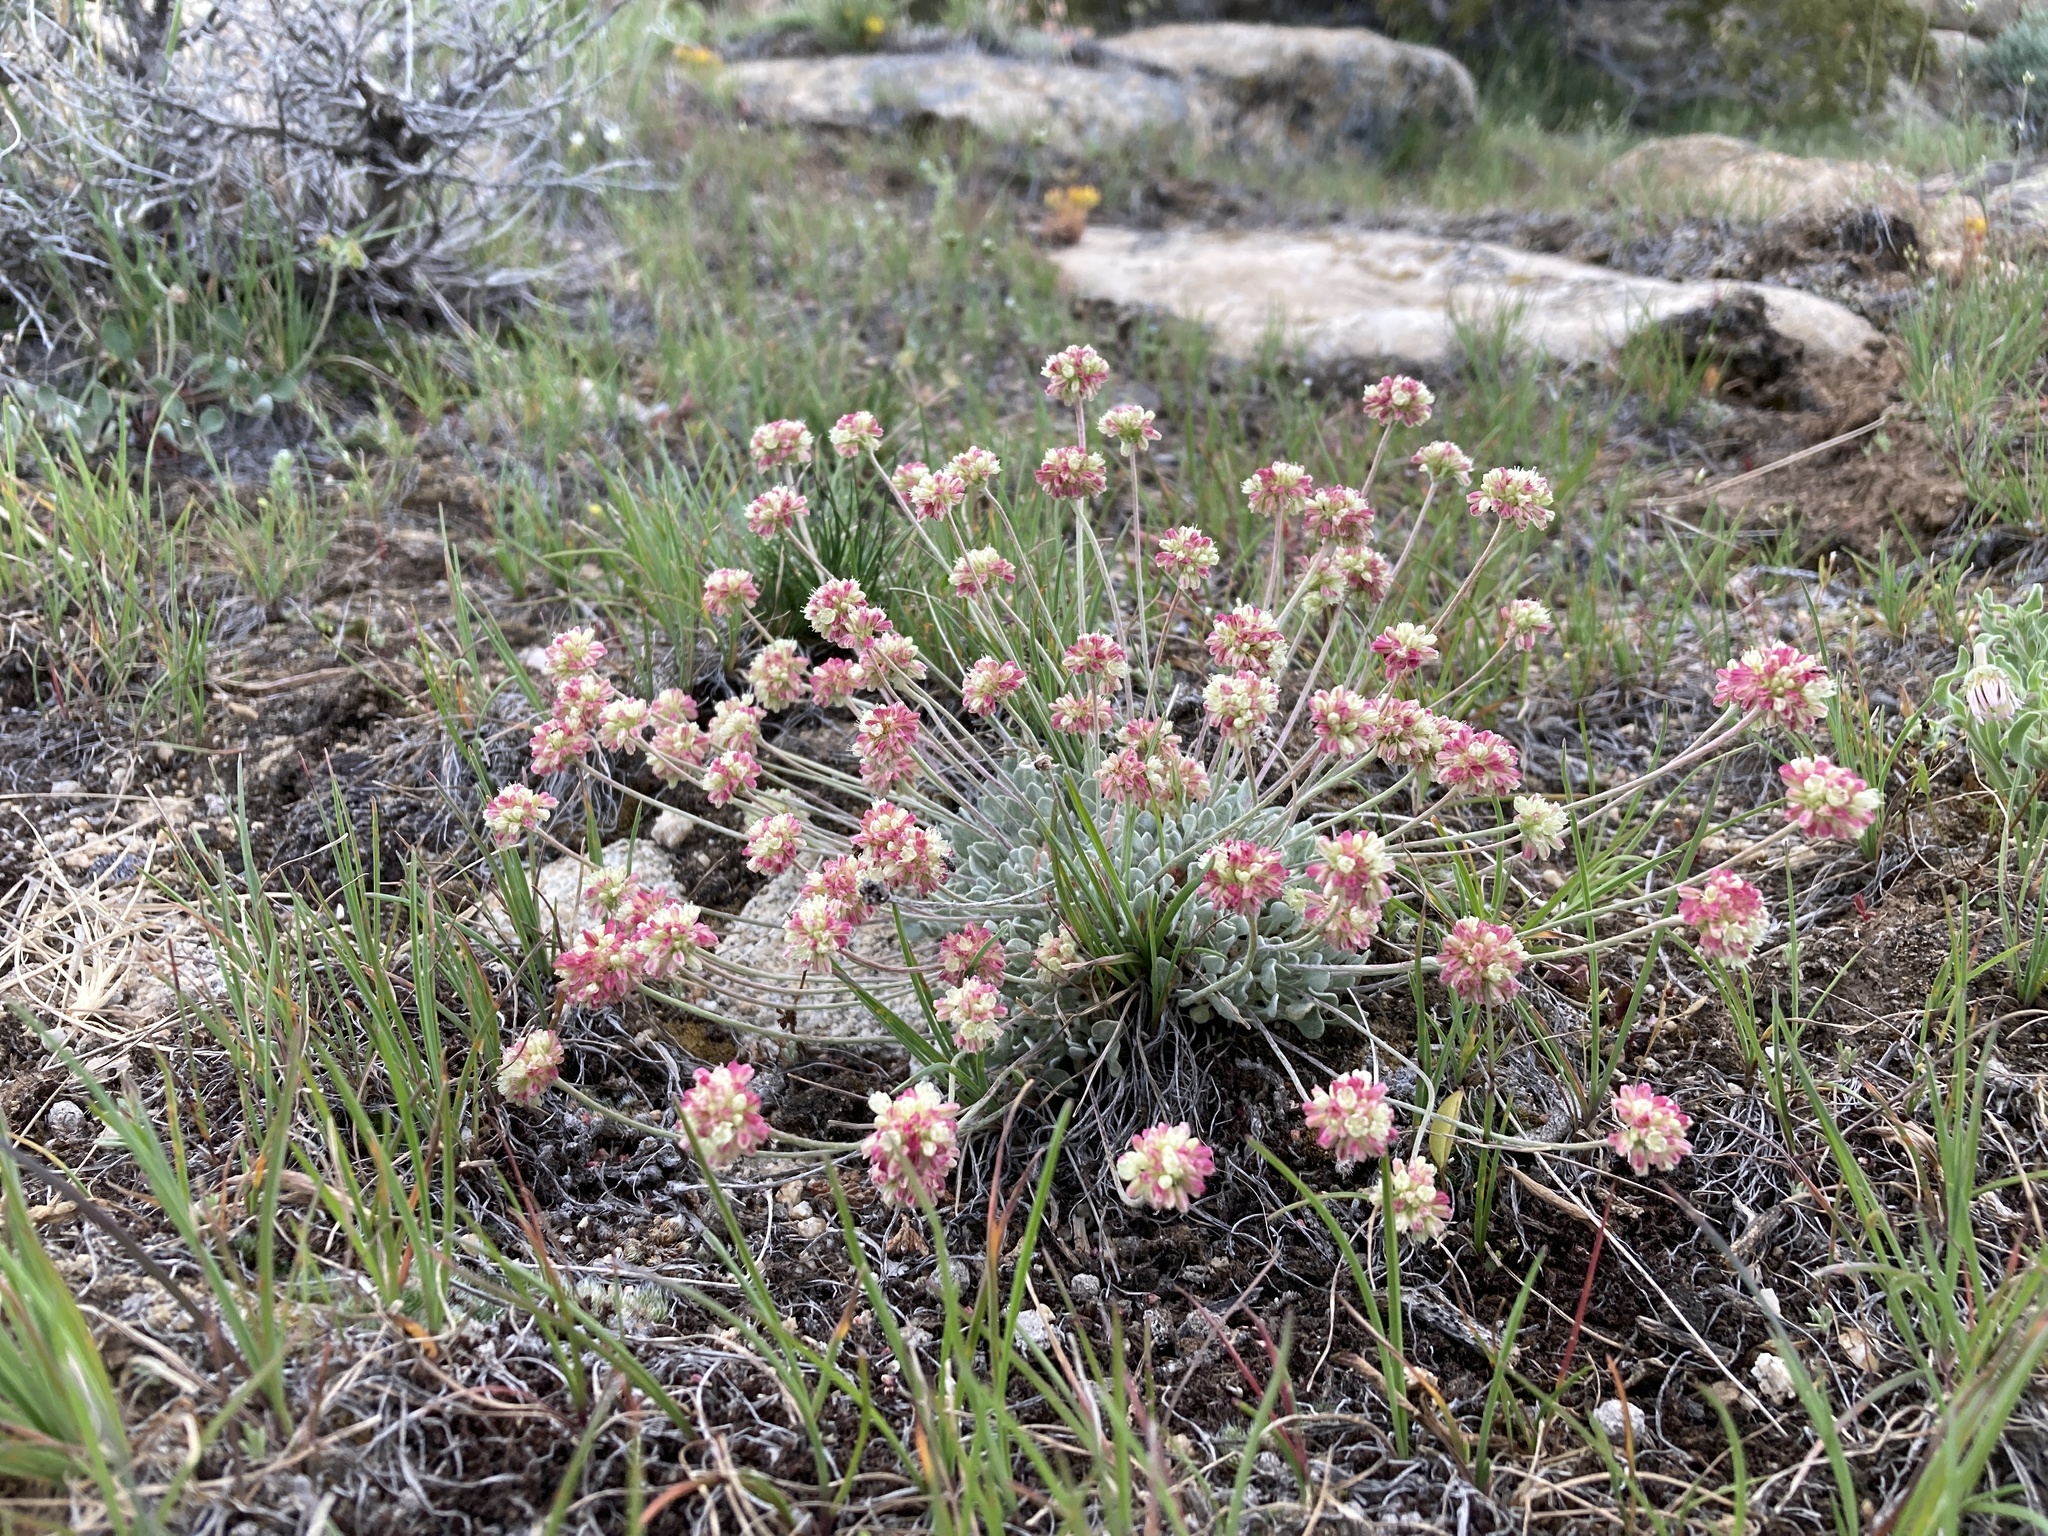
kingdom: Plantae
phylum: Tracheophyta
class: Magnoliopsida
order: Caryophyllales
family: Polygonaceae
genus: Eriogonum
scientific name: Eriogonum ovalifolium
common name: Cushion buckwheat
